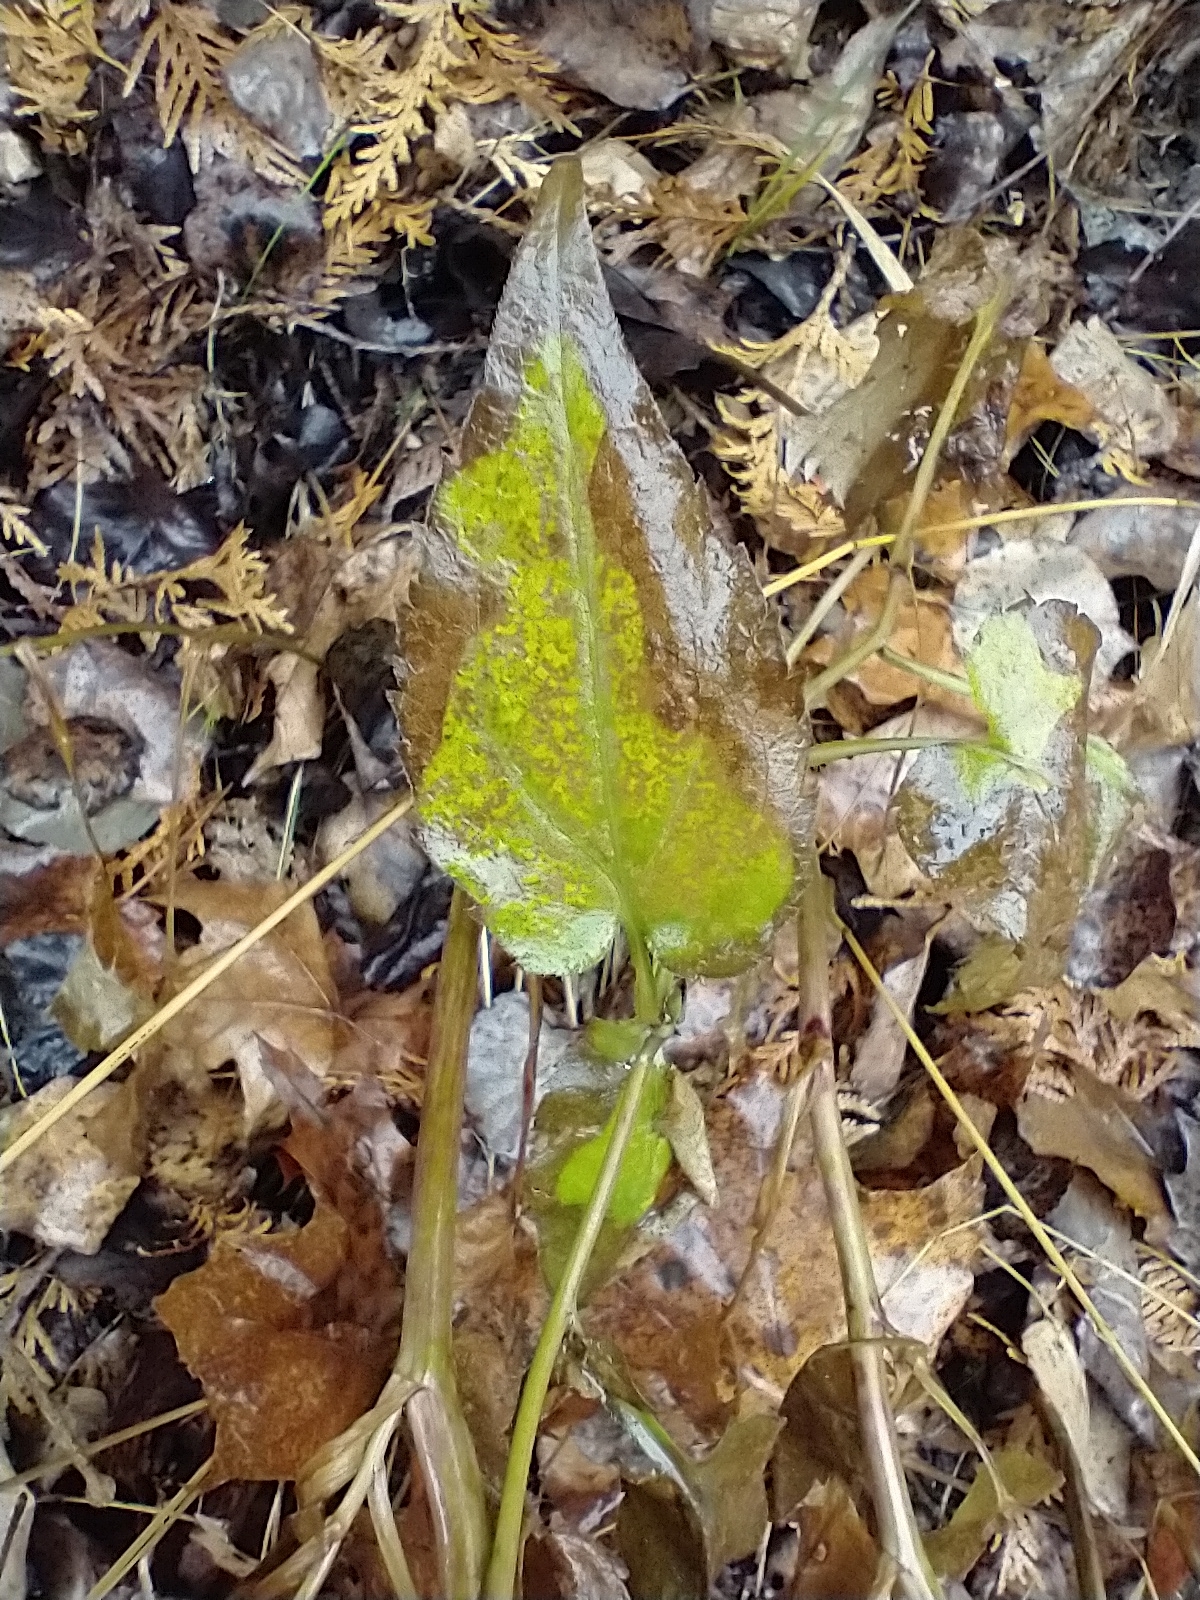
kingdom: Plantae
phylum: Tracheophyta
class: Magnoliopsida
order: Asterales
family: Asteraceae
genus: Symphyotrichum
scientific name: Symphyotrichum cordifolium
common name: Beeweed
